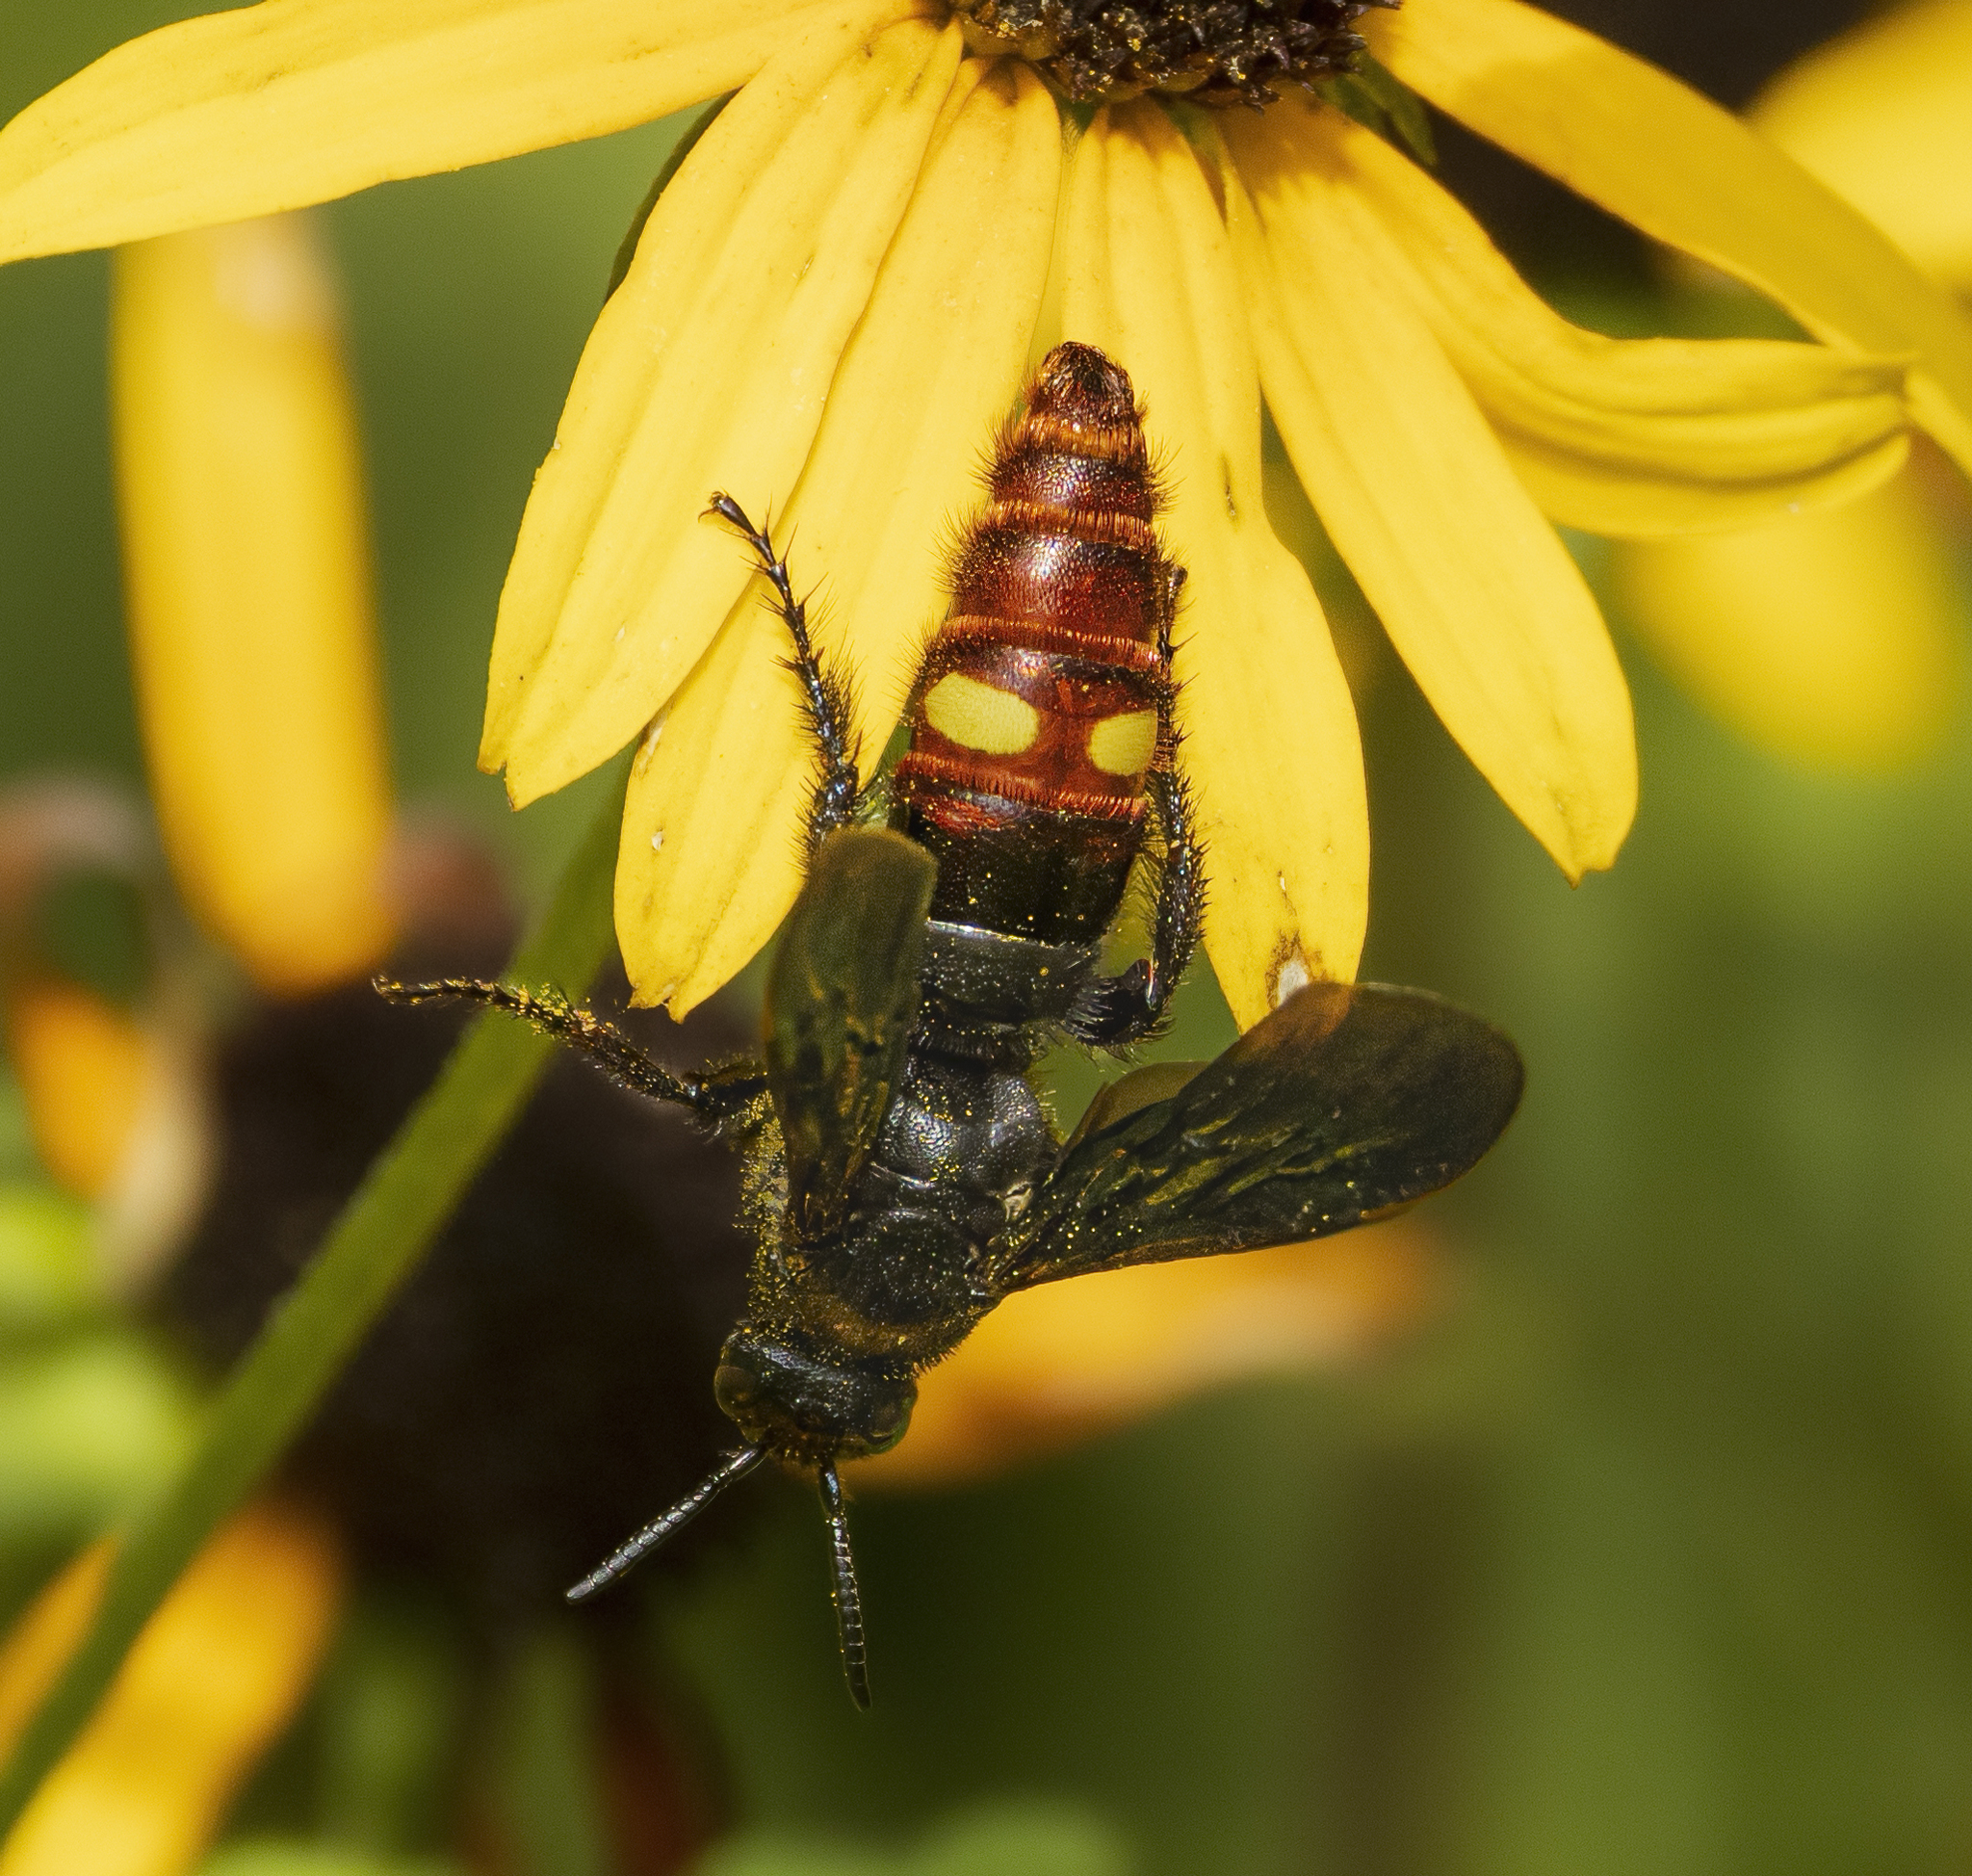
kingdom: Animalia
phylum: Arthropoda
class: Insecta
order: Hymenoptera
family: Scoliidae
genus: Scolia
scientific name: Scolia dubia
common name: Blue-winged scoliid wasp
